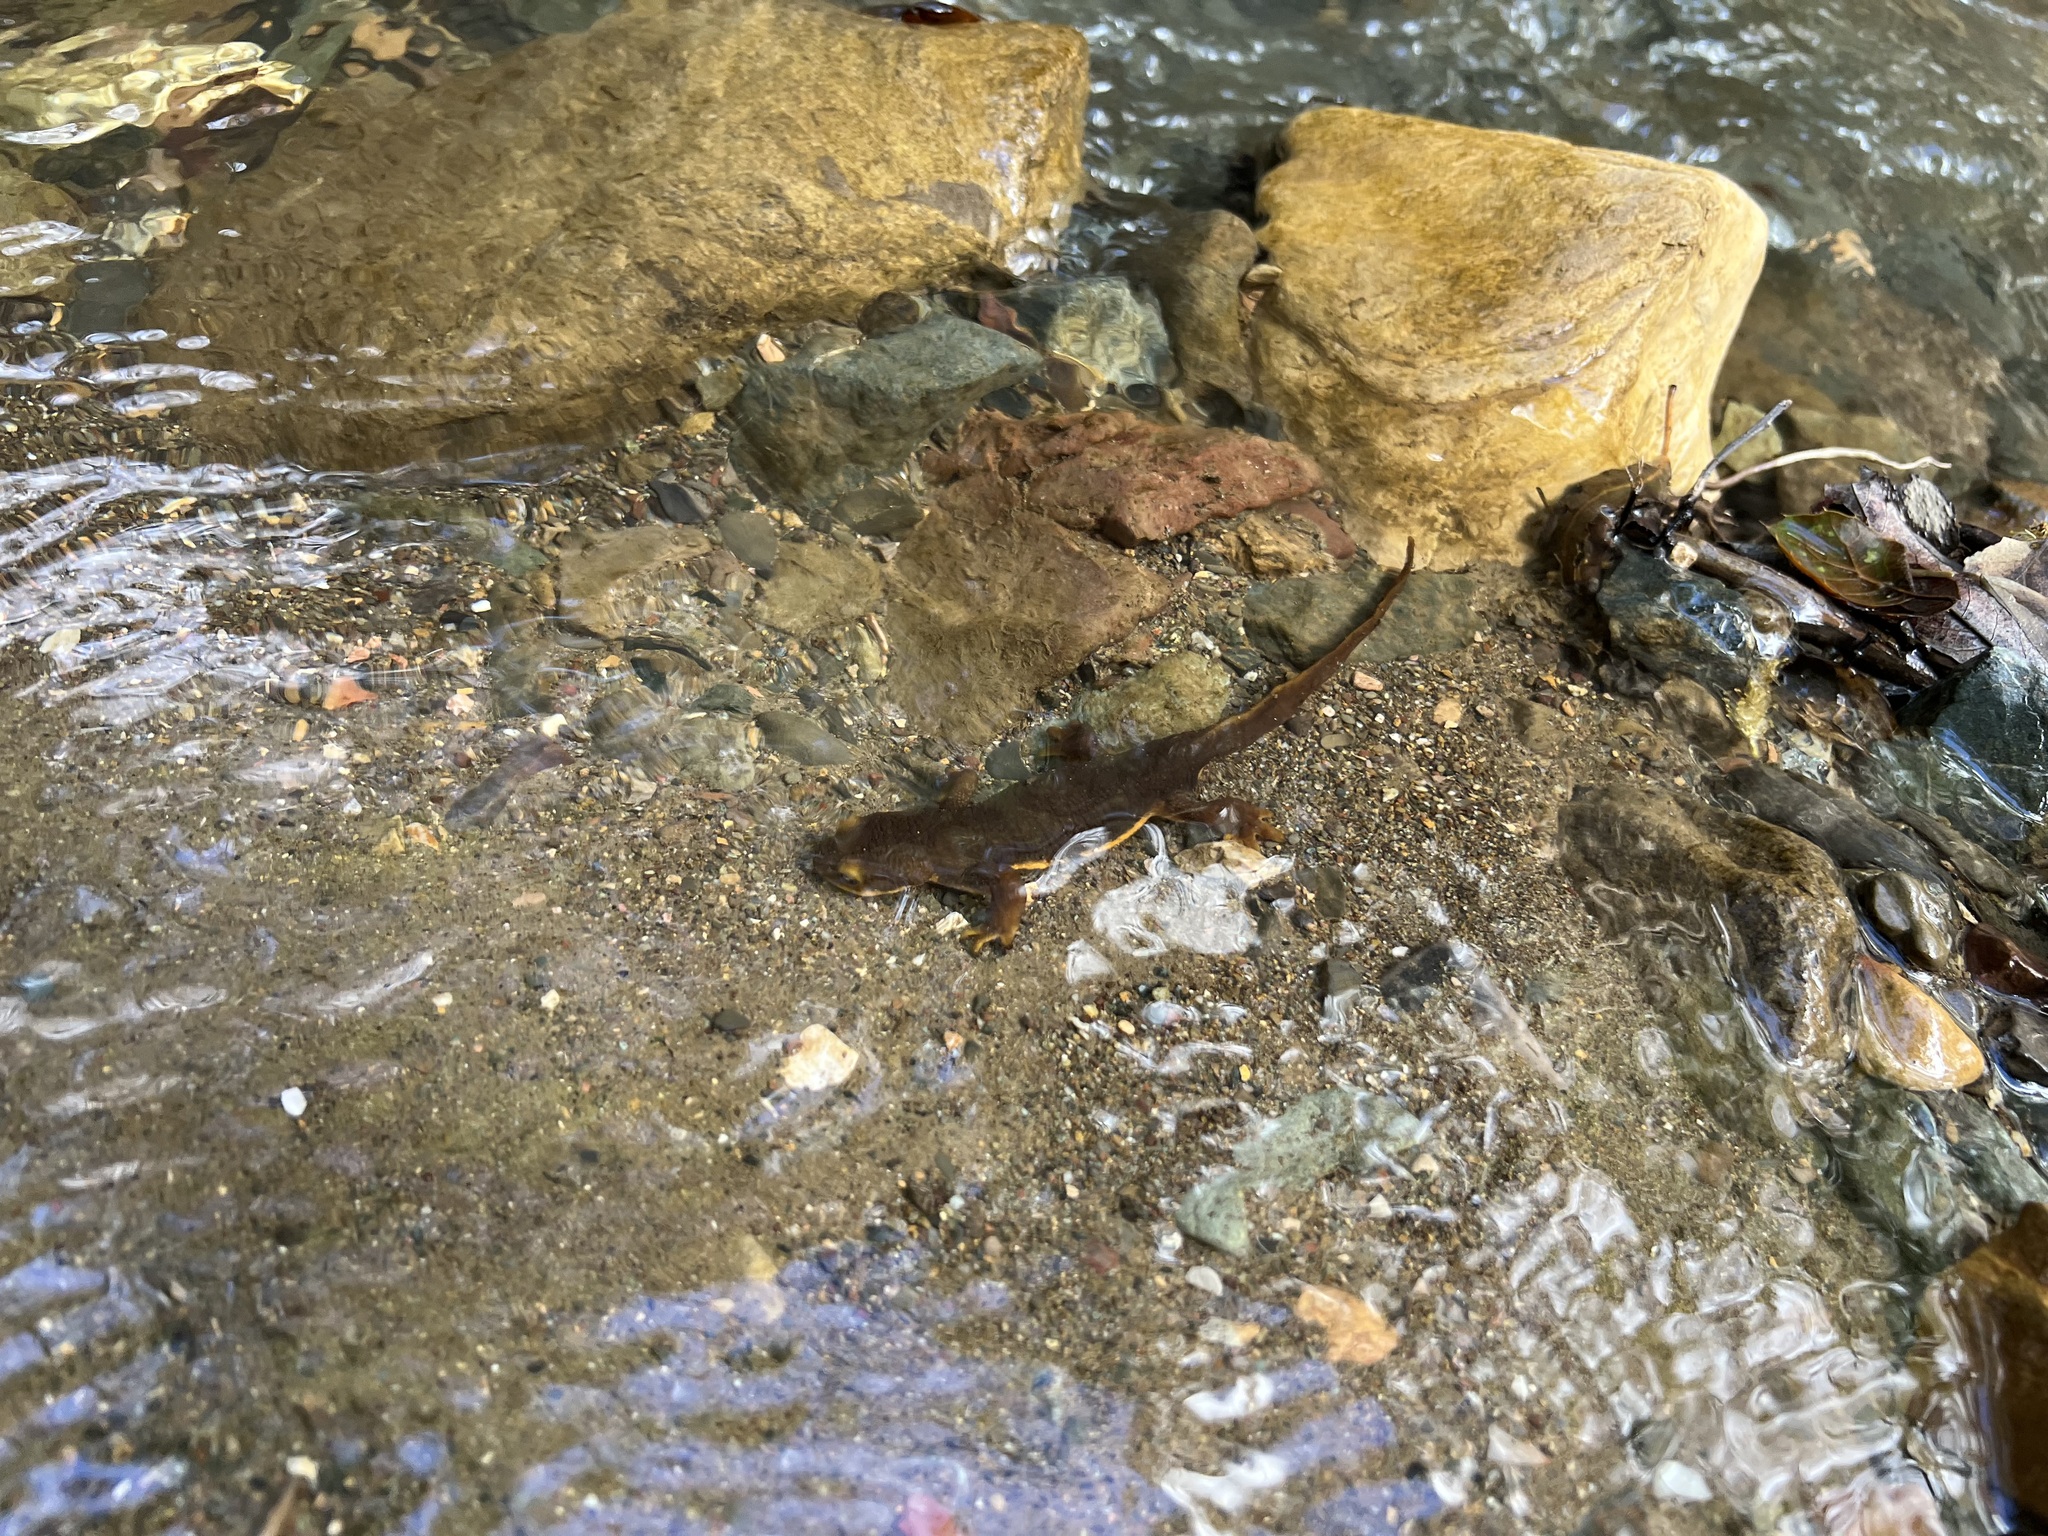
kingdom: Animalia
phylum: Chordata
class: Amphibia
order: Caudata
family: Salamandridae
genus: Taricha
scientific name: Taricha torosa
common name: California newt
